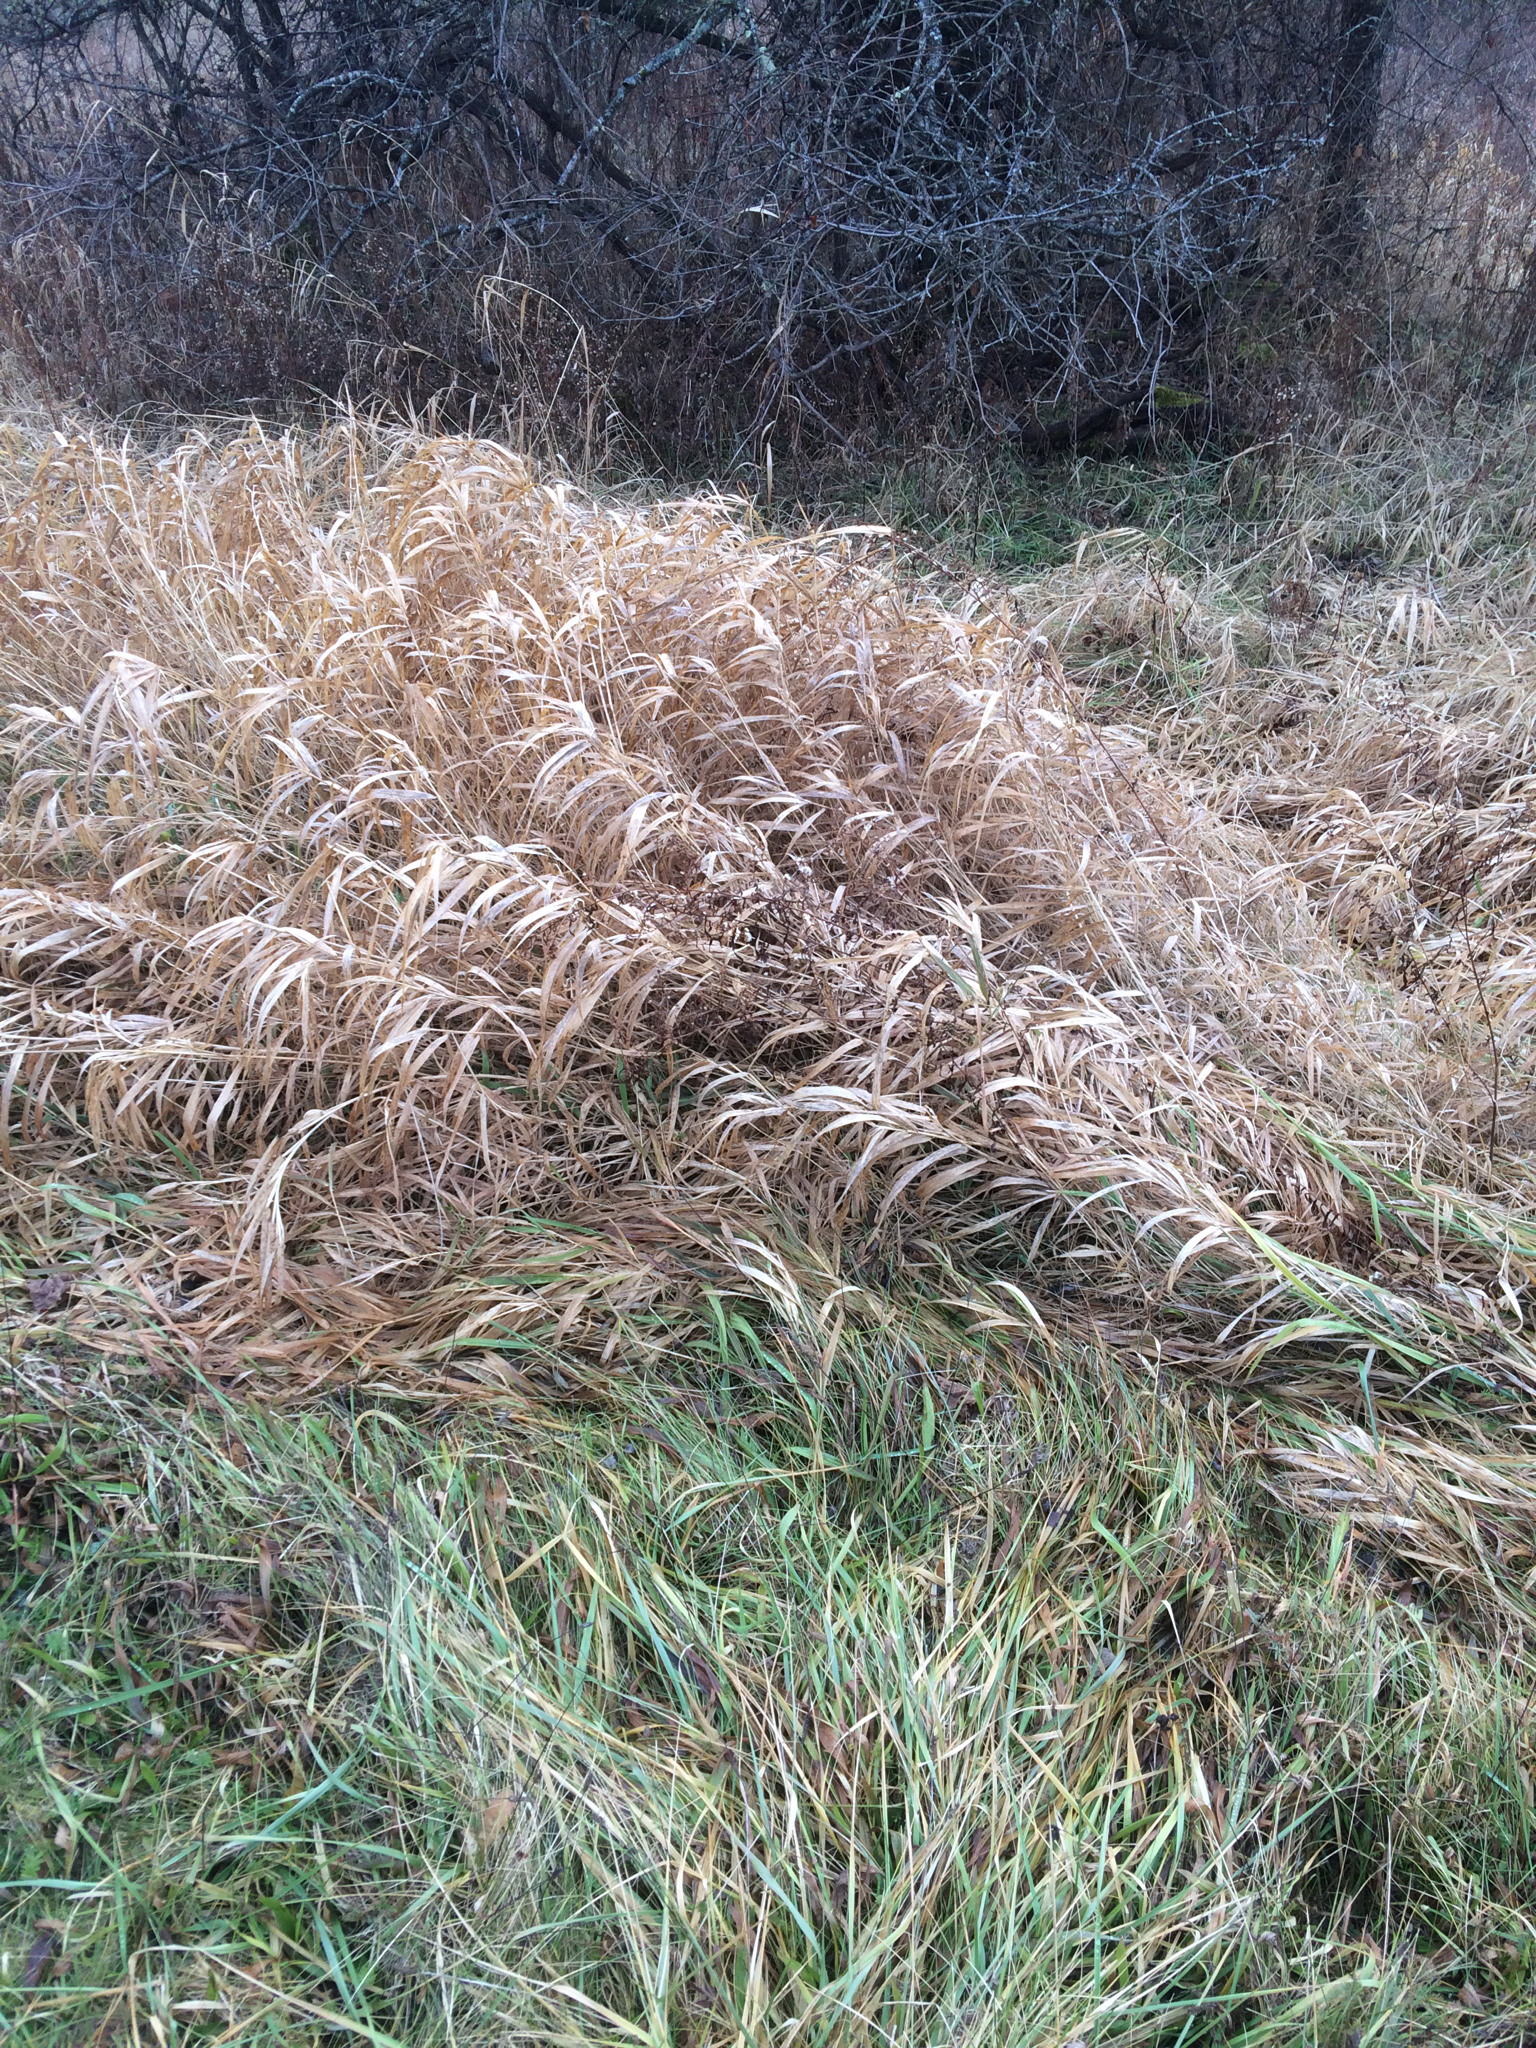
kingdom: Plantae
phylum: Tracheophyta
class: Liliopsida
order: Poales
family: Poaceae
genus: Phalaris
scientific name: Phalaris arundinacea
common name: Reed canary-grass
